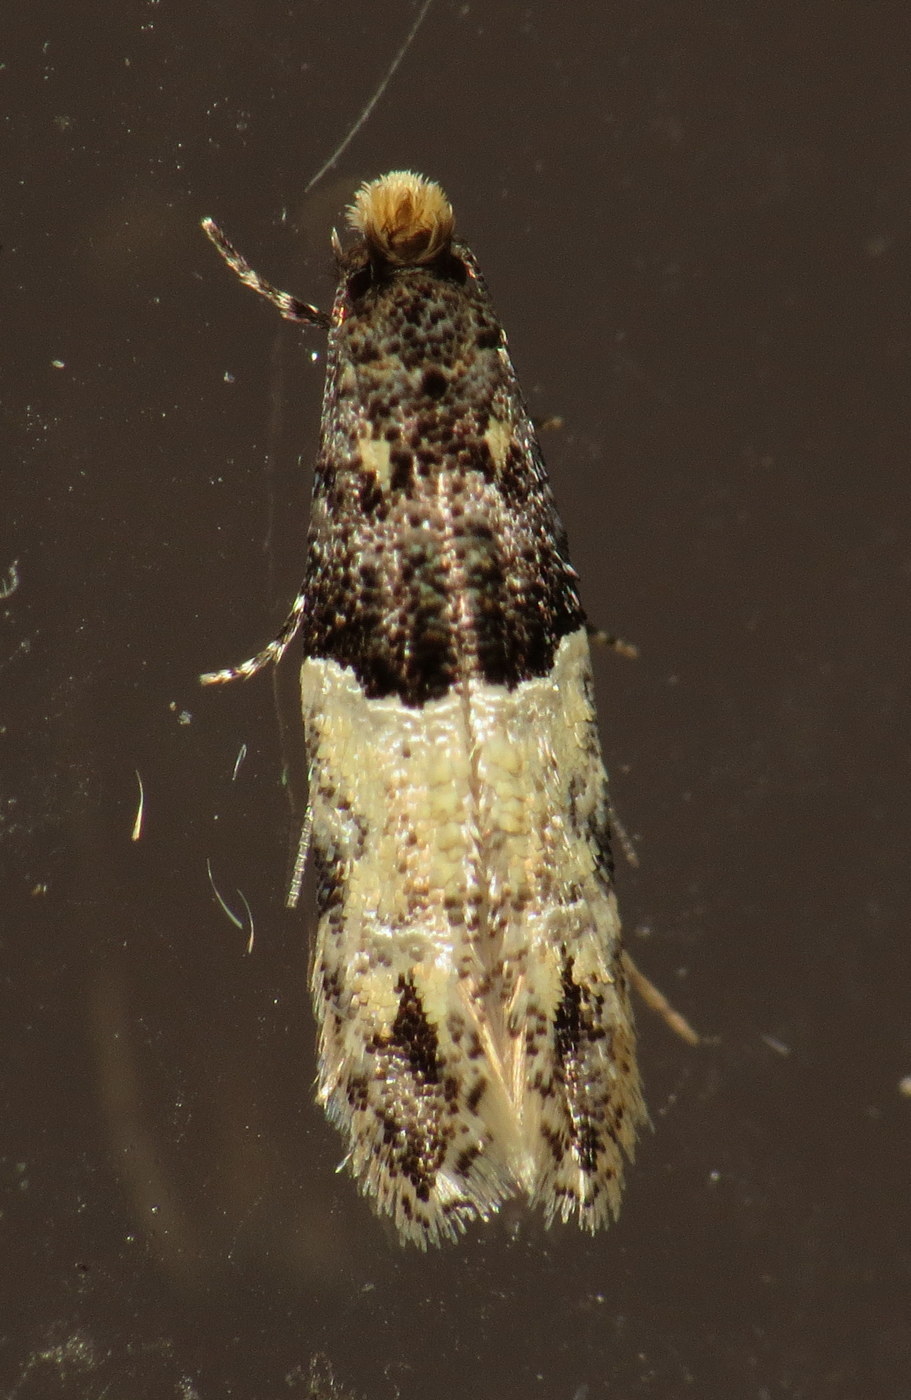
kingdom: Animalia
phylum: Arthropoda
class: Insecta
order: Lepidoptera
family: Meessiidae
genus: Oenoe
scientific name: Oenoe hybromella
